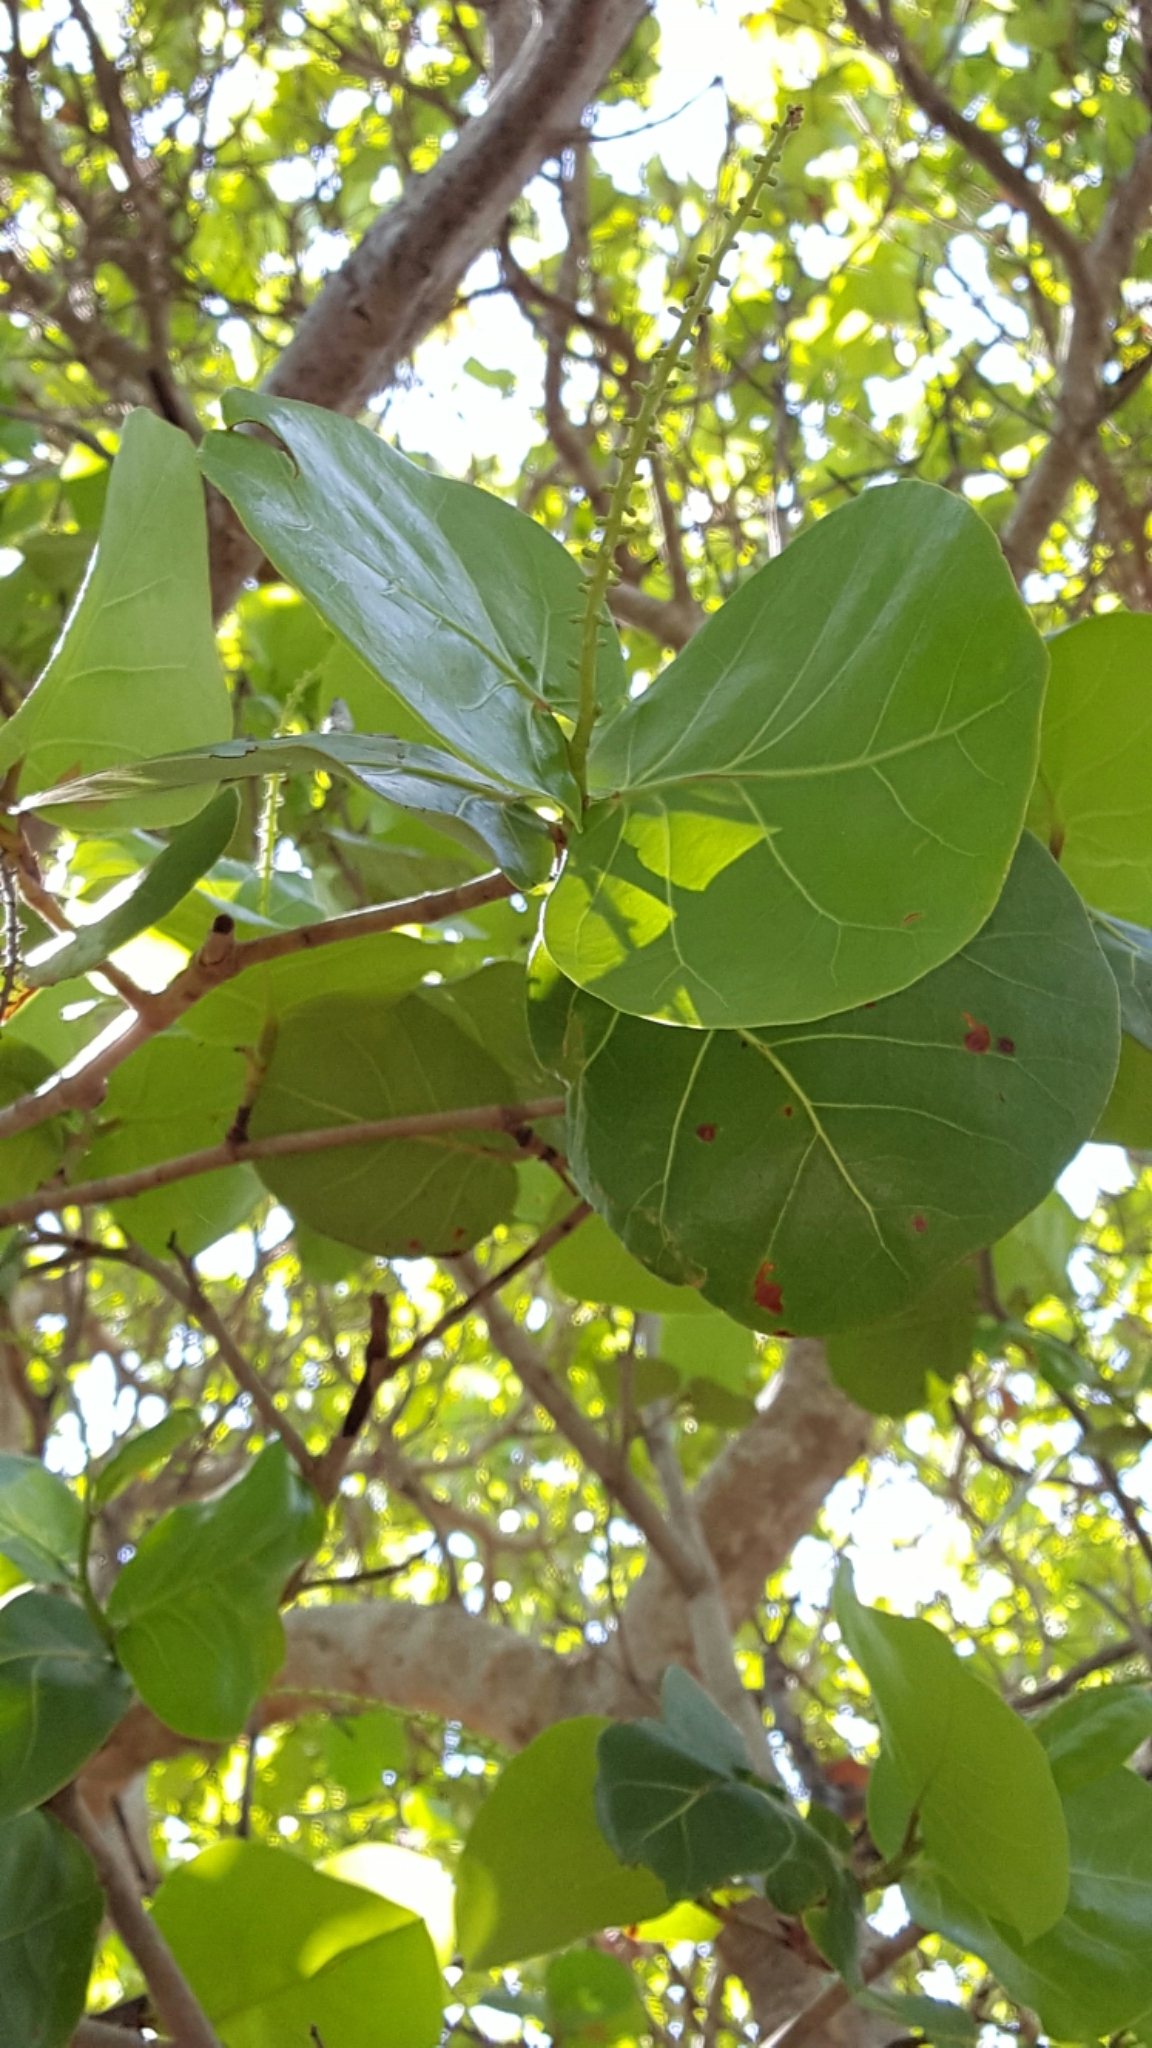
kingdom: Plantae
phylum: Tracheophyta
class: Magnoliopsida
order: Caryophyllales
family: Polygonaceae
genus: Coccoloba
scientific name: Coccoloba uvifera
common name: Seagrape
